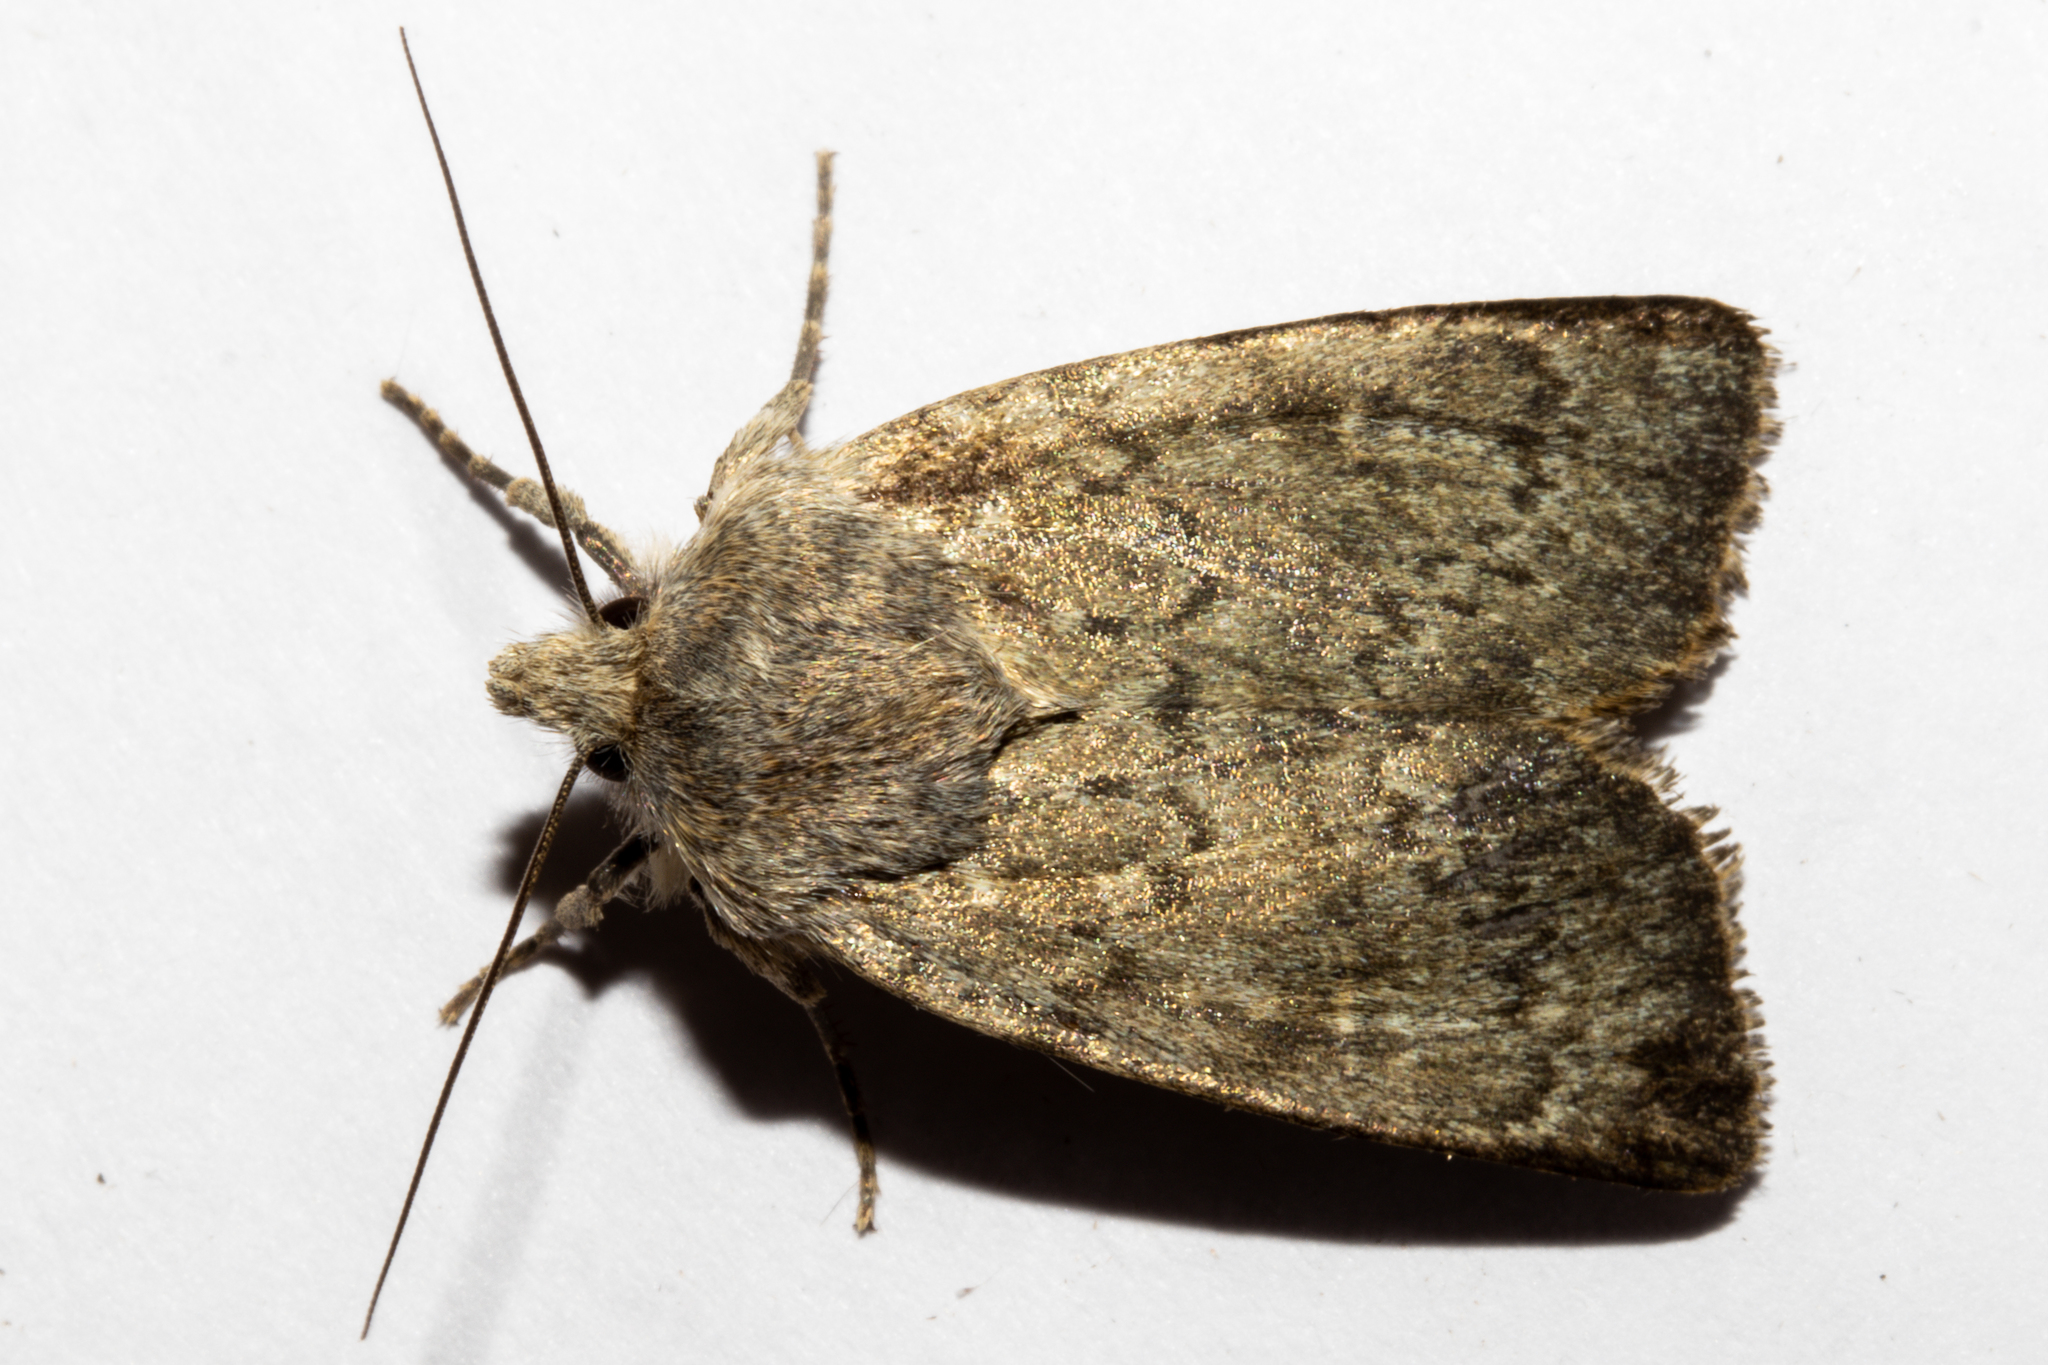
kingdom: Animalia
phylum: Arthropoda
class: Insecta
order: Lepidoptera
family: Noctuidae
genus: Physetica
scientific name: Physetica caerulea
